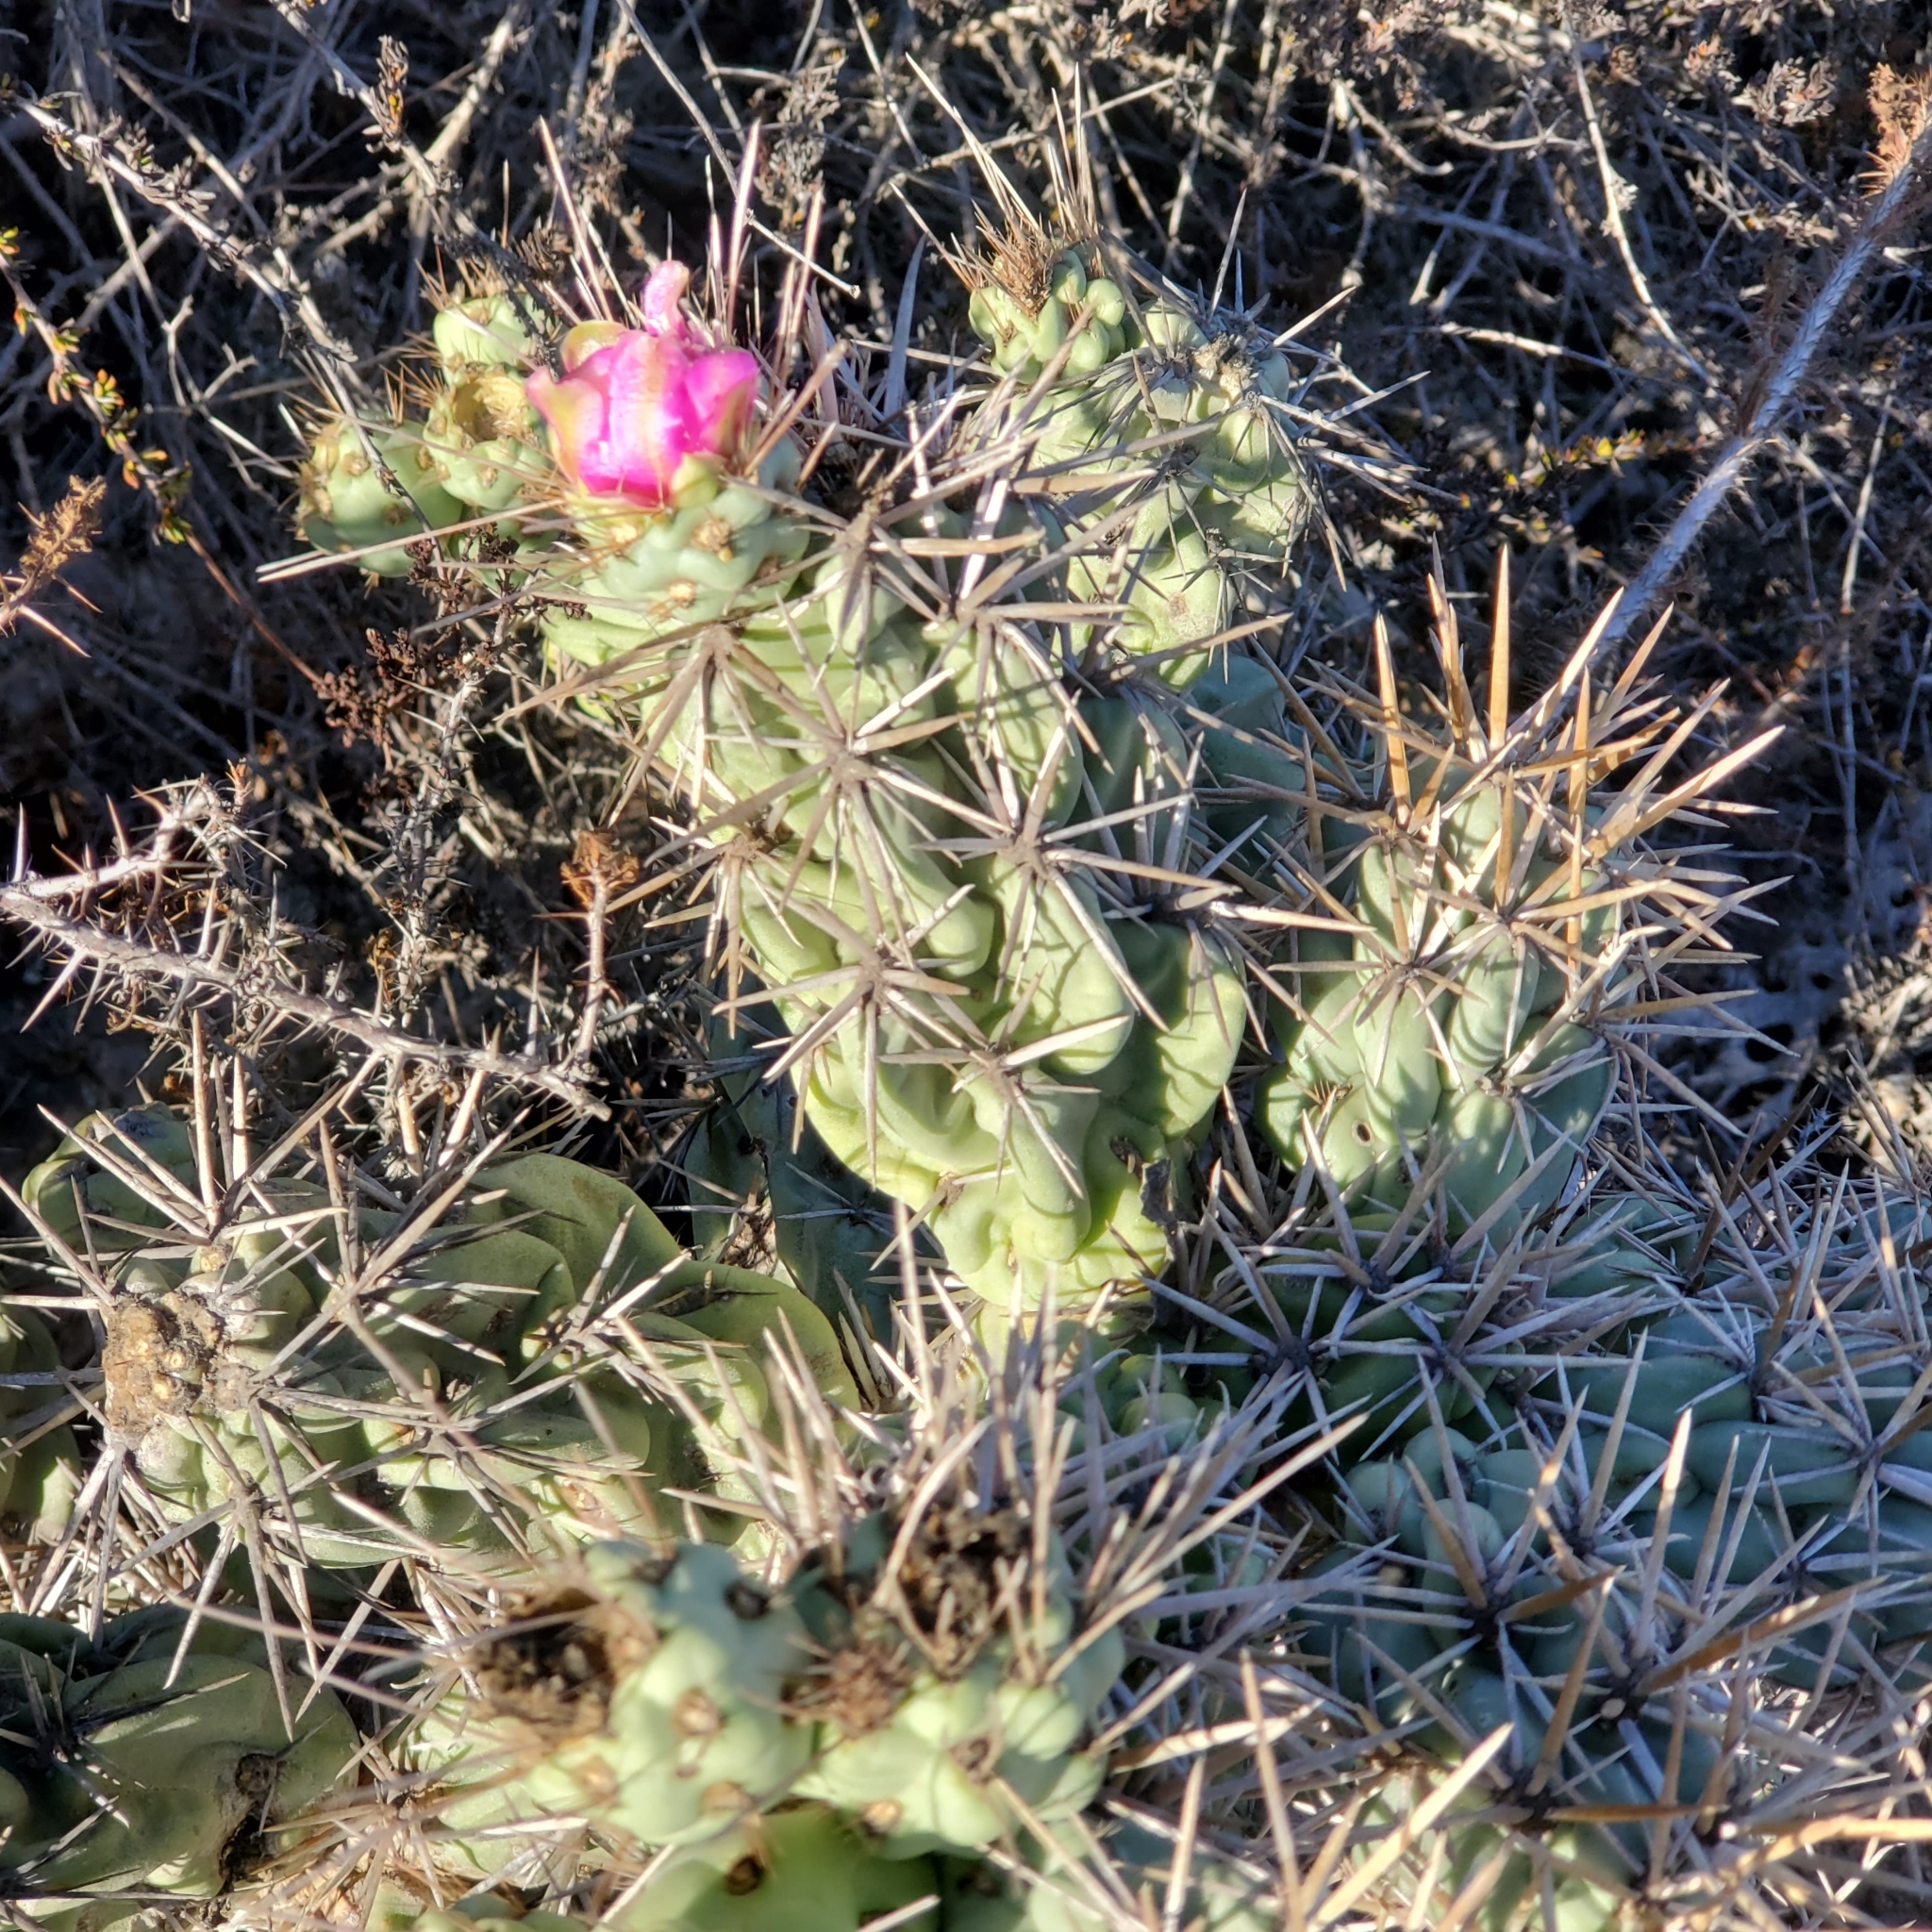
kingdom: Plantae
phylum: Tracheophyta
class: Magnoliopsida
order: Caryophyllales
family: Cactaceae
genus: Cylindropuntia
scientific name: Cylindropuntia cholla
